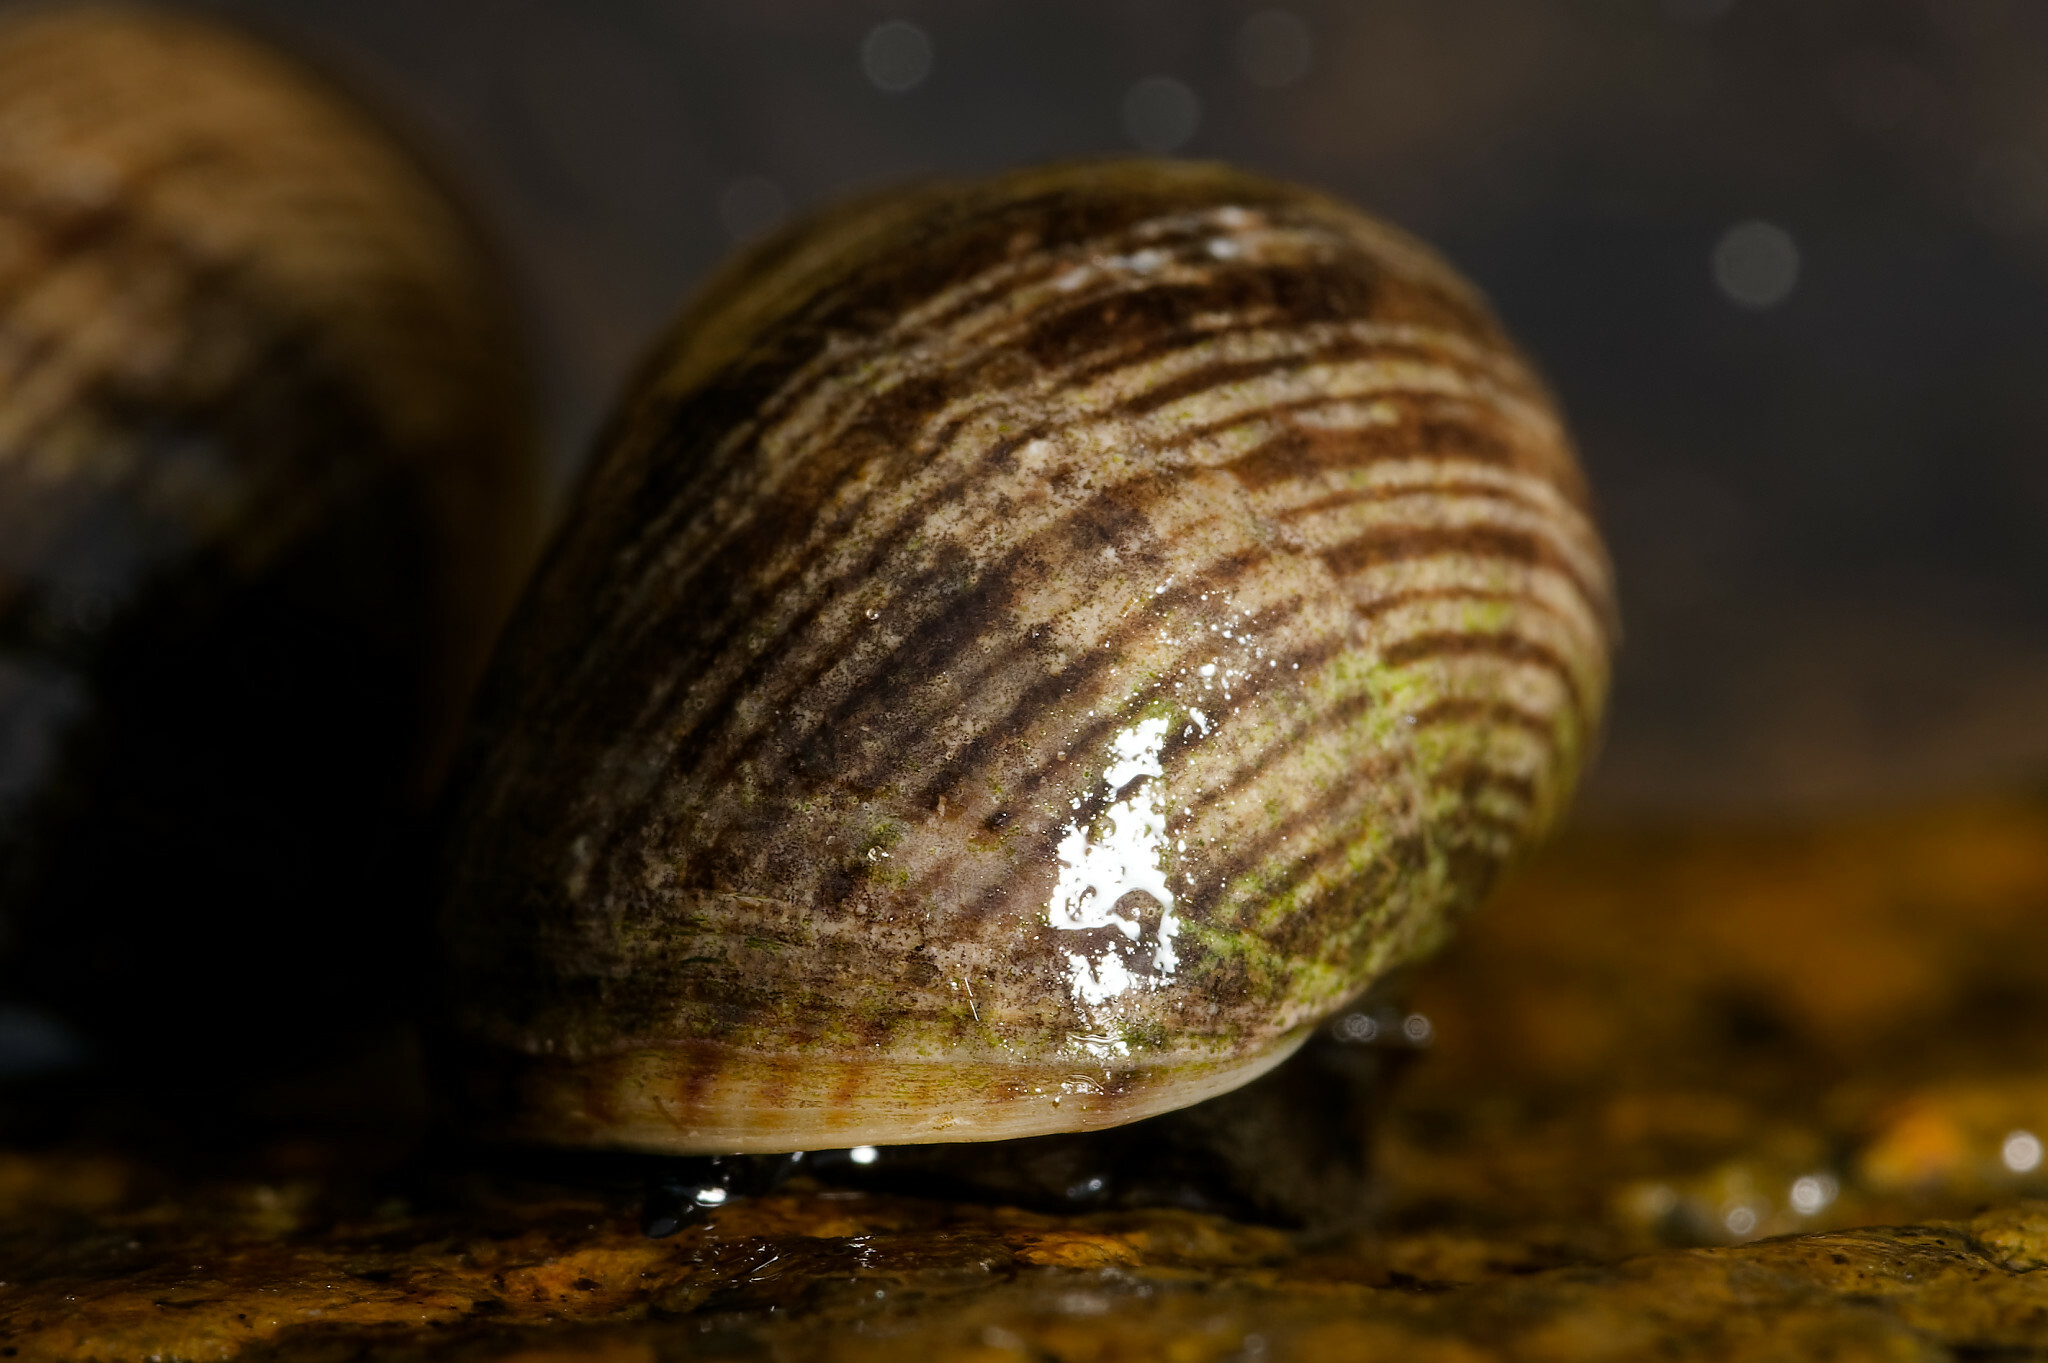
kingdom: Animalia
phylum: Mollusca
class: Gastropoda
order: Littorinimorpha
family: Littorinidae
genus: Littorina
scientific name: Littorina littorea
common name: Common periwinkle
